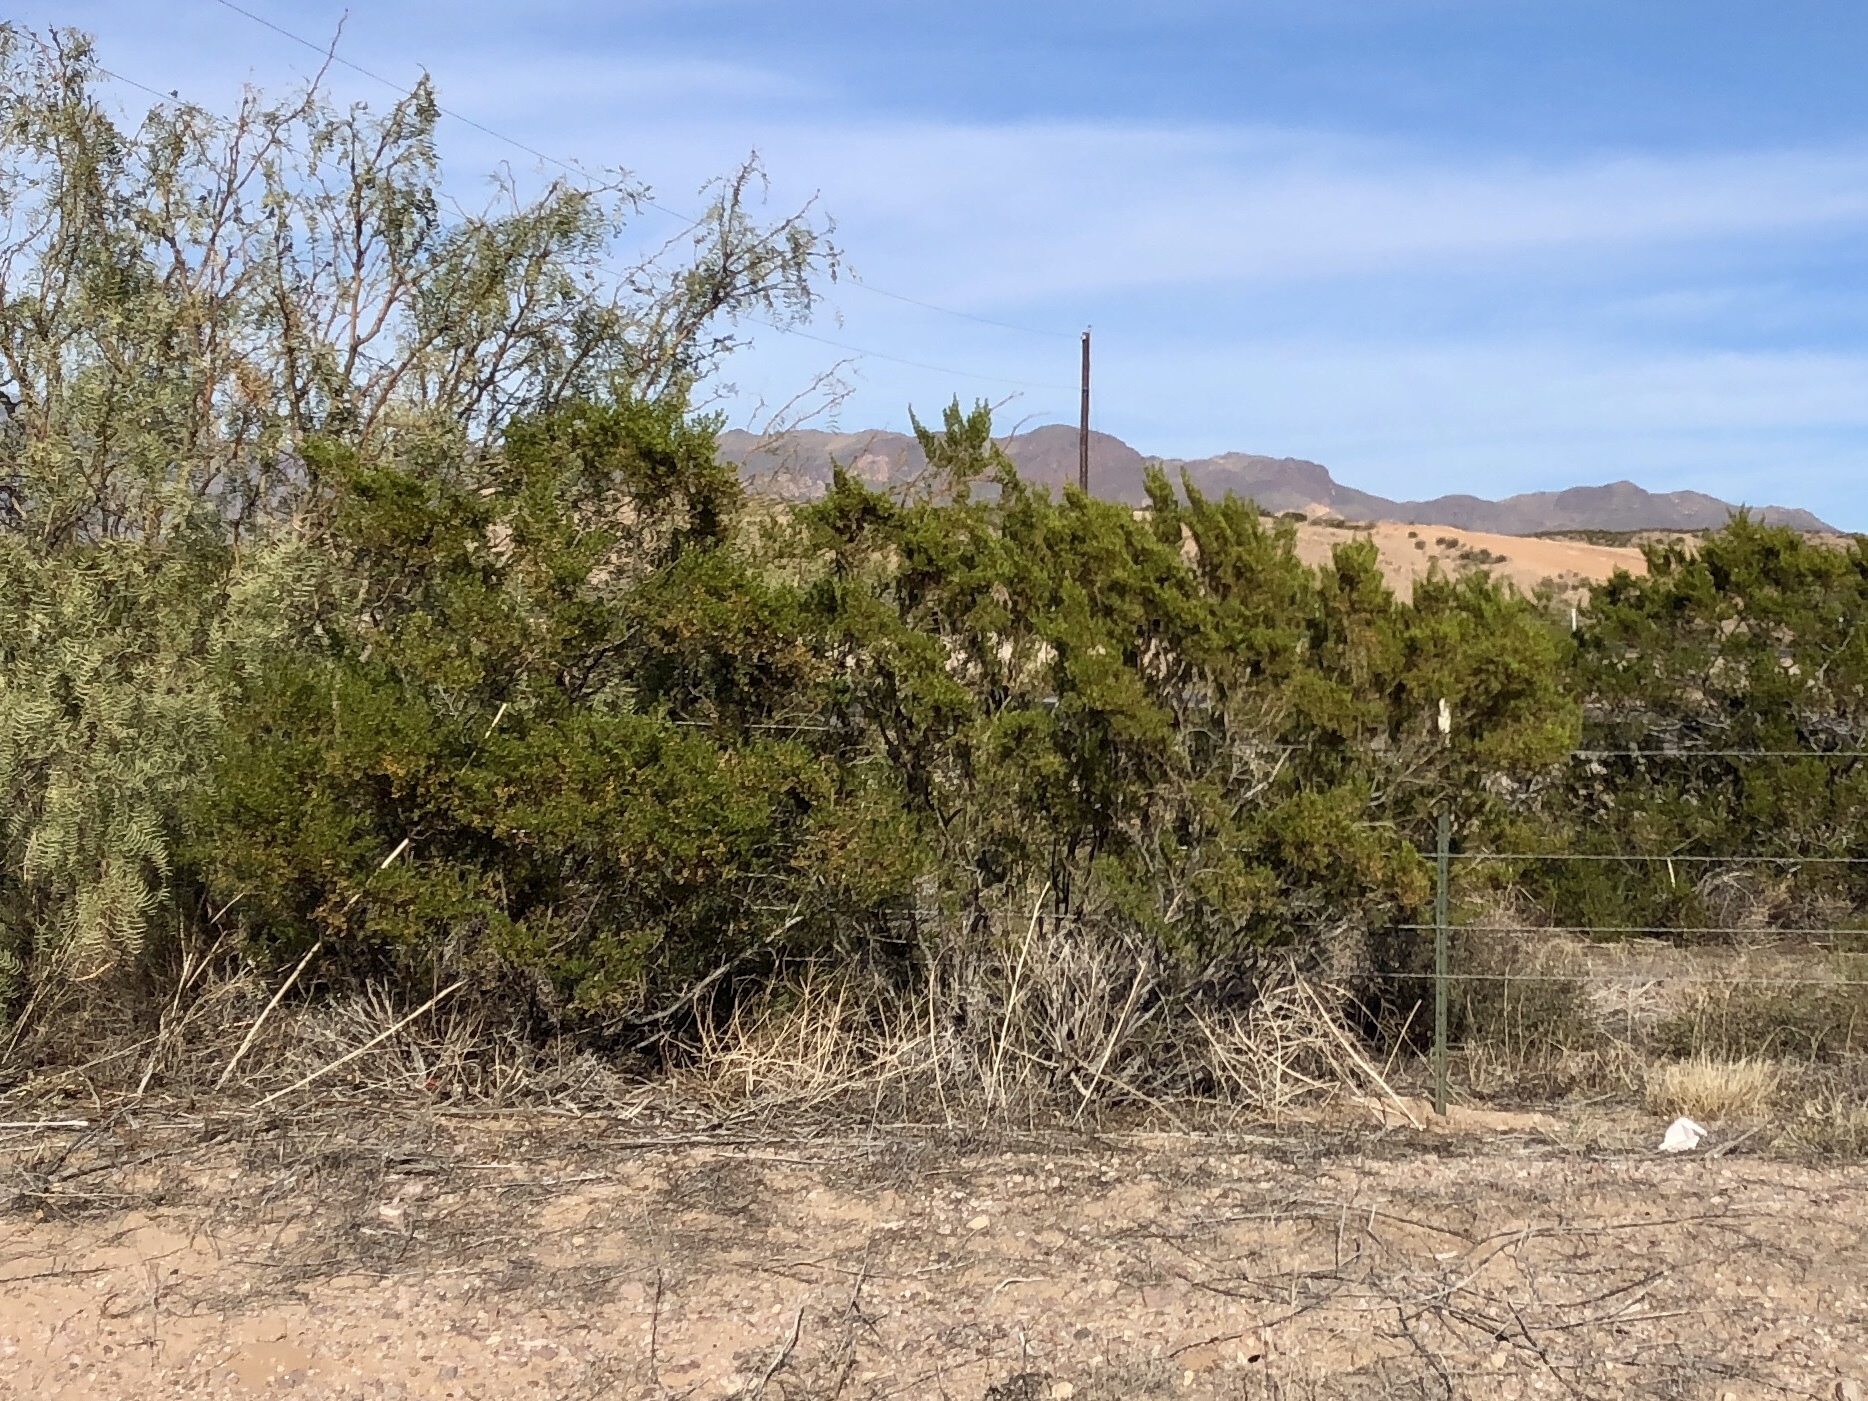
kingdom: Plantae
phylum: Tracheophyta
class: Magnoliopsida
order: Zygophyllales
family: Zygophyllaceae
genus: Larrea
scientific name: Larrea tridentata
